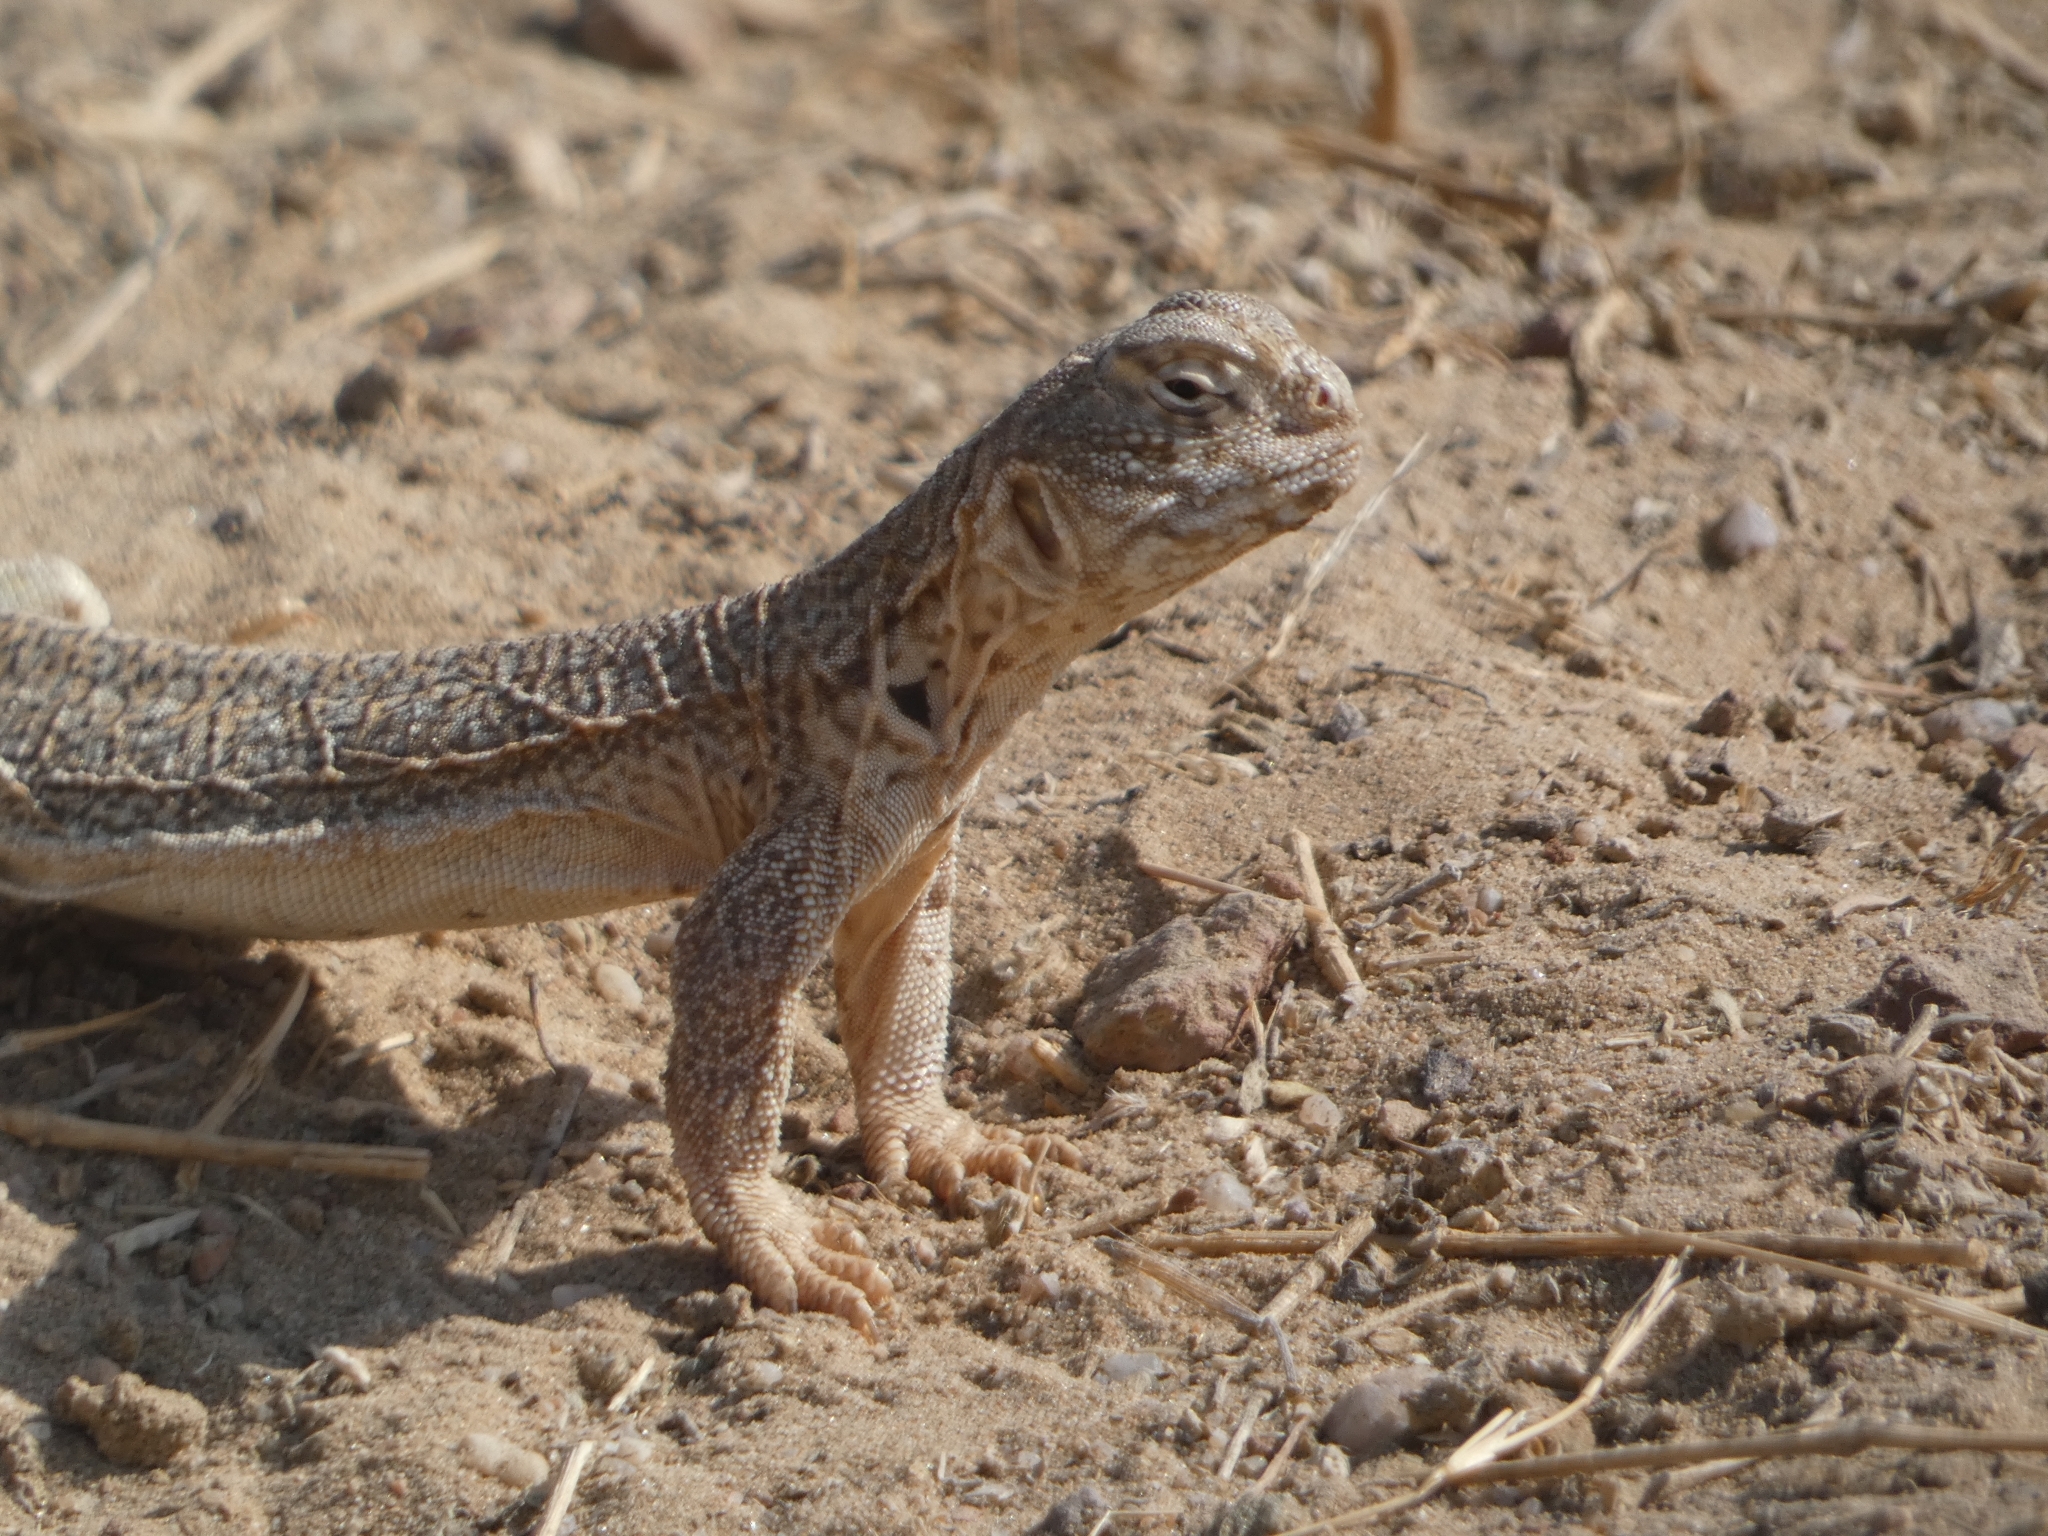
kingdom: Animalia
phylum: Chordata
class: Squamata
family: Agamidae
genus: Saara
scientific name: Saara hardwickii
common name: Hardwick's spiny-tailed lizard
